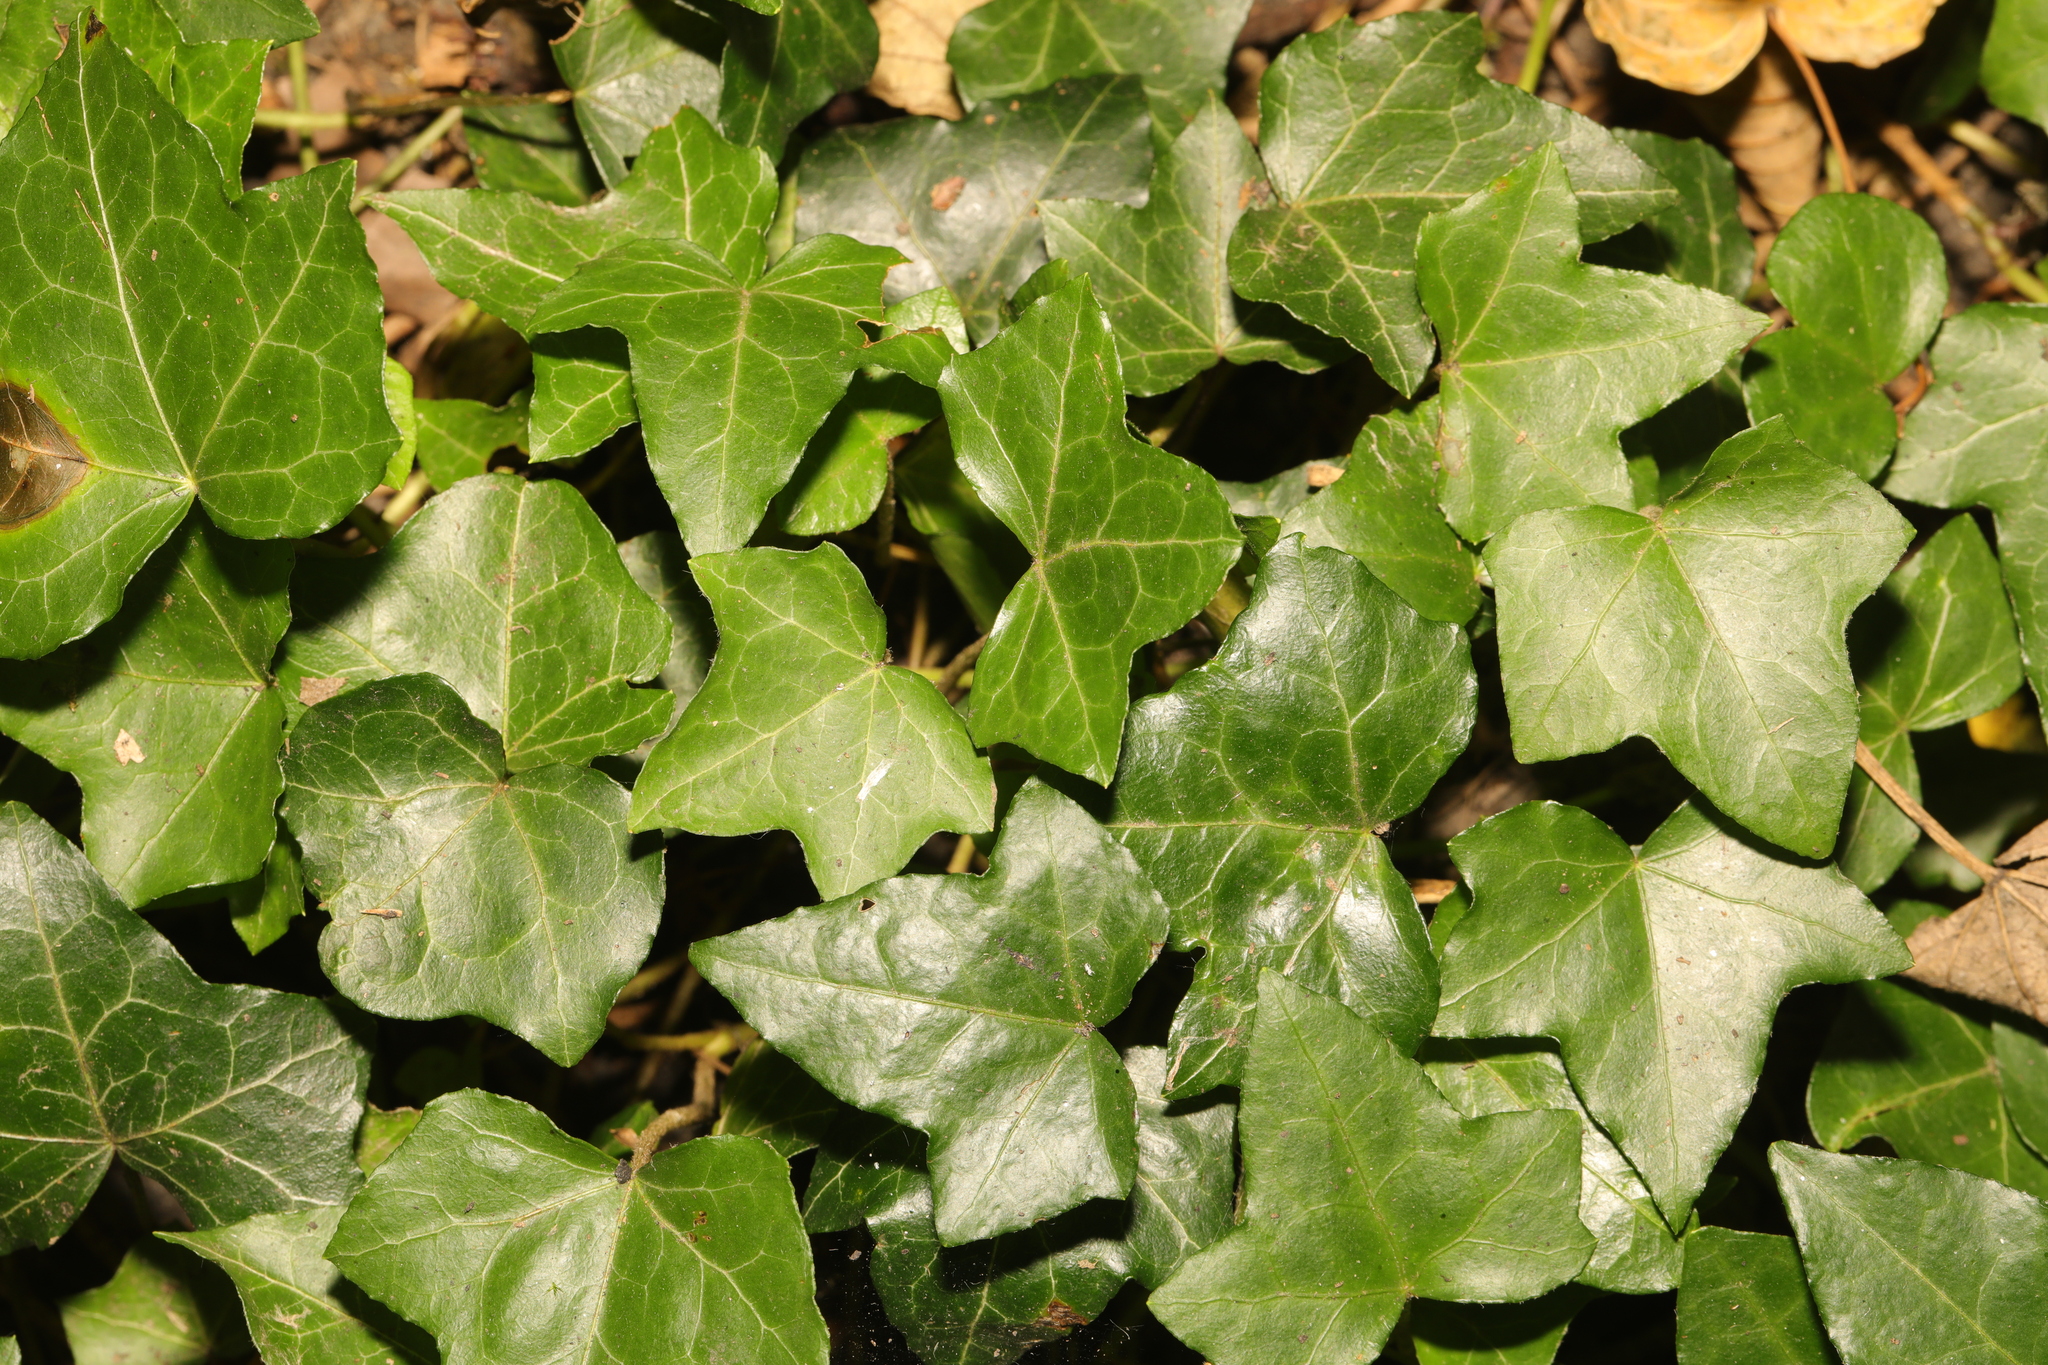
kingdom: Plantae
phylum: Tracheophyta
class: Magnoliopsida
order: Apiales
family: Araliaceae
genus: Hedera
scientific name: Hedera helix
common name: Ivy
